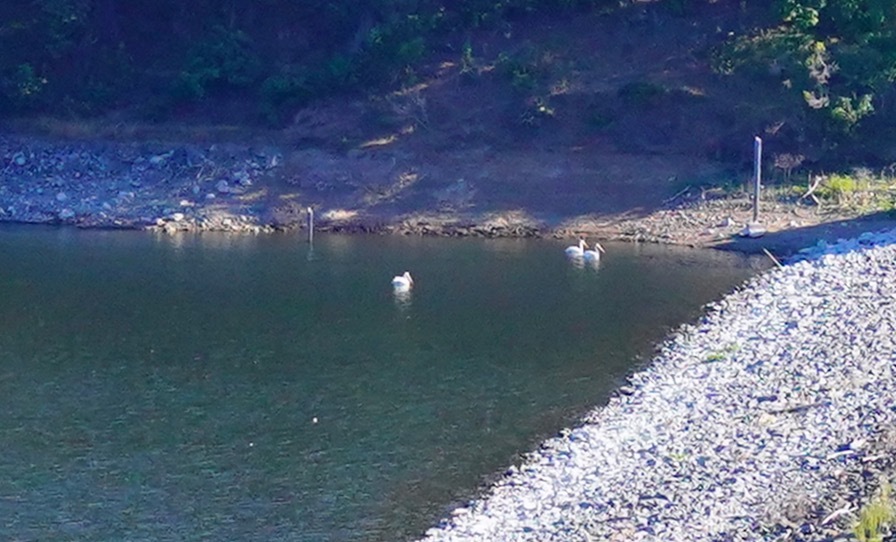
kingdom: Animalia
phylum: Chordata
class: Aves
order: Pelecaniformes
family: Pelecanidae
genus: Pelecanus
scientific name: Pelecanus erythrorhynchos
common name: American white pelican
